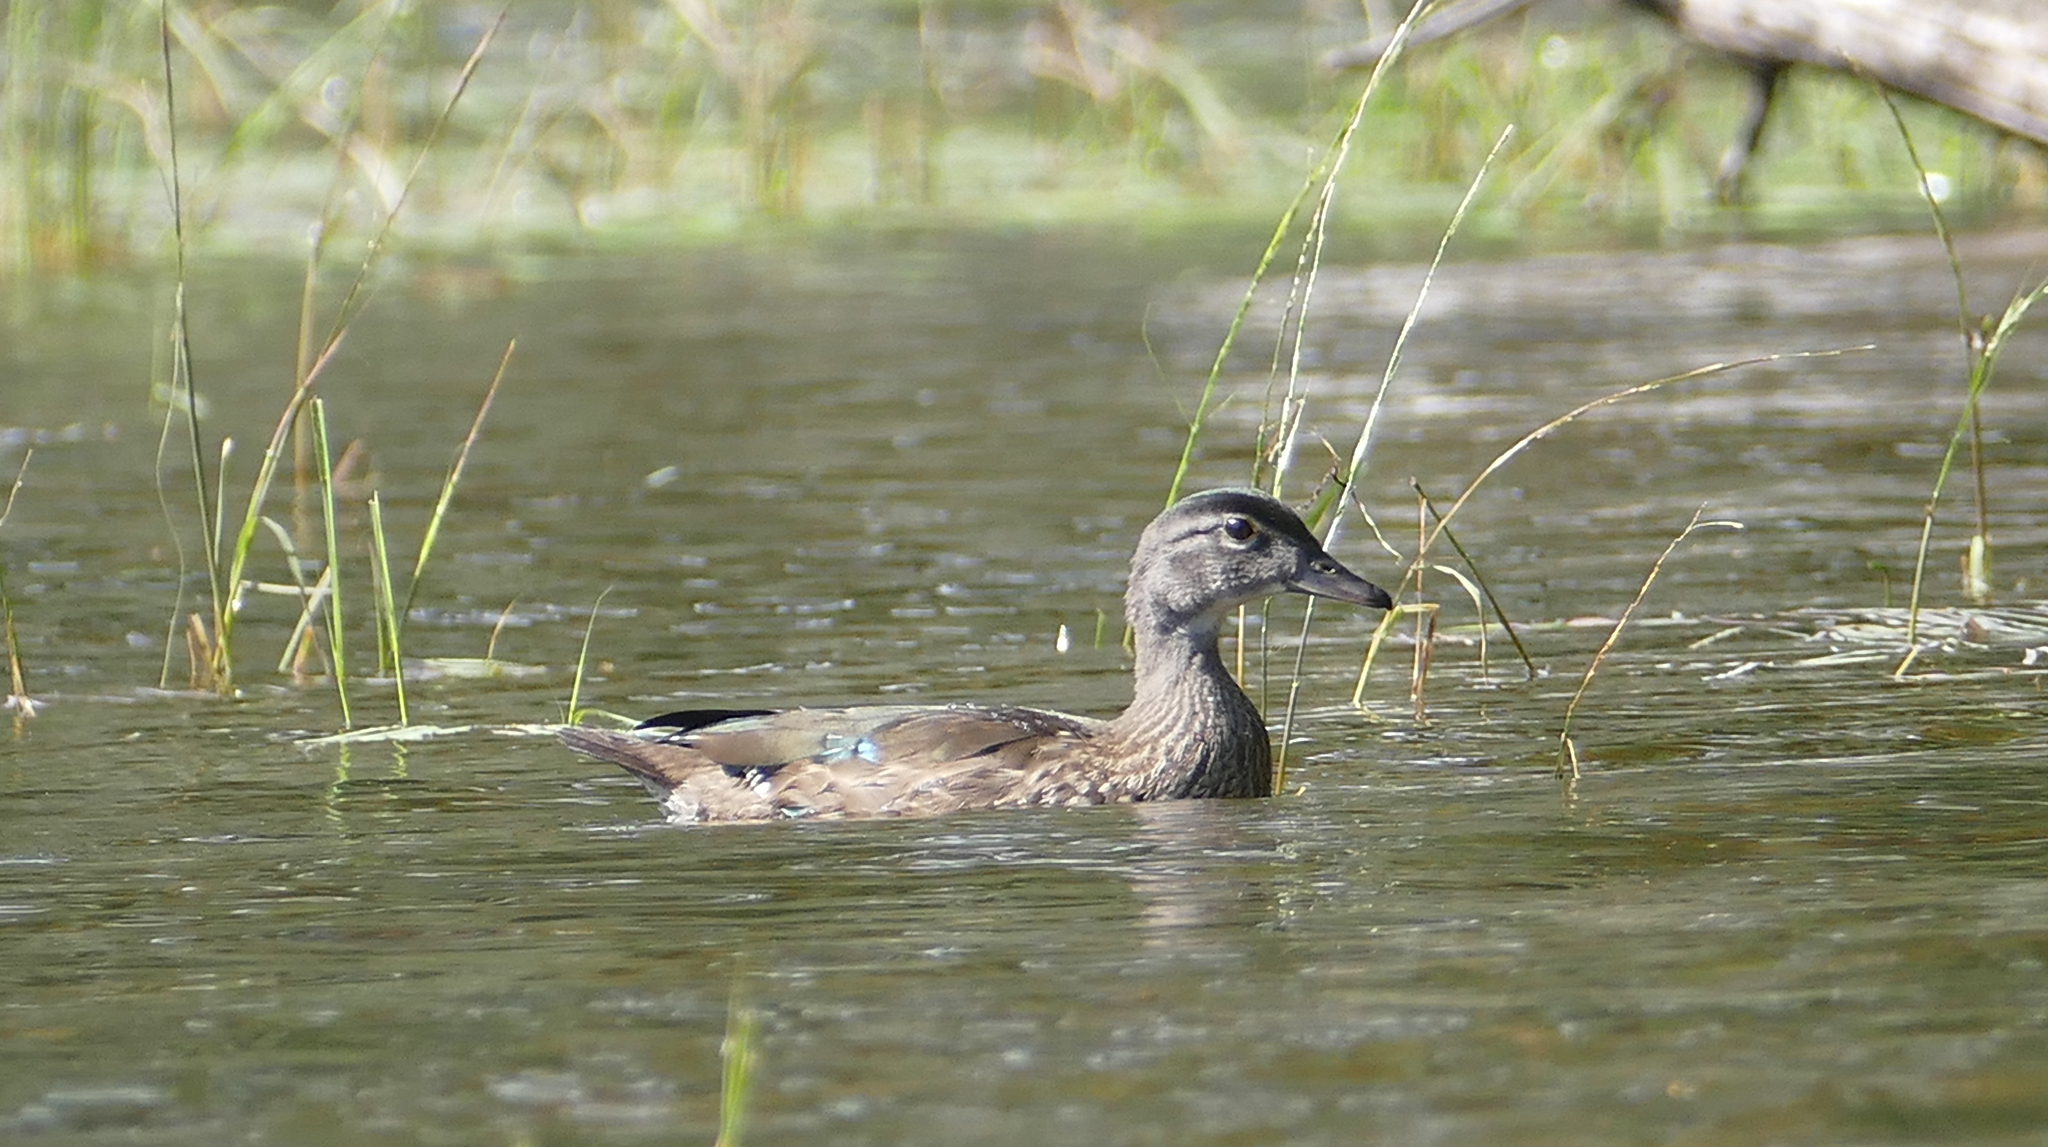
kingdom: Animalia
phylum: Chordata
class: Aves
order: Anseriformes
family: Anatidae
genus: Aix
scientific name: Aix sponsa
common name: Wood duck
